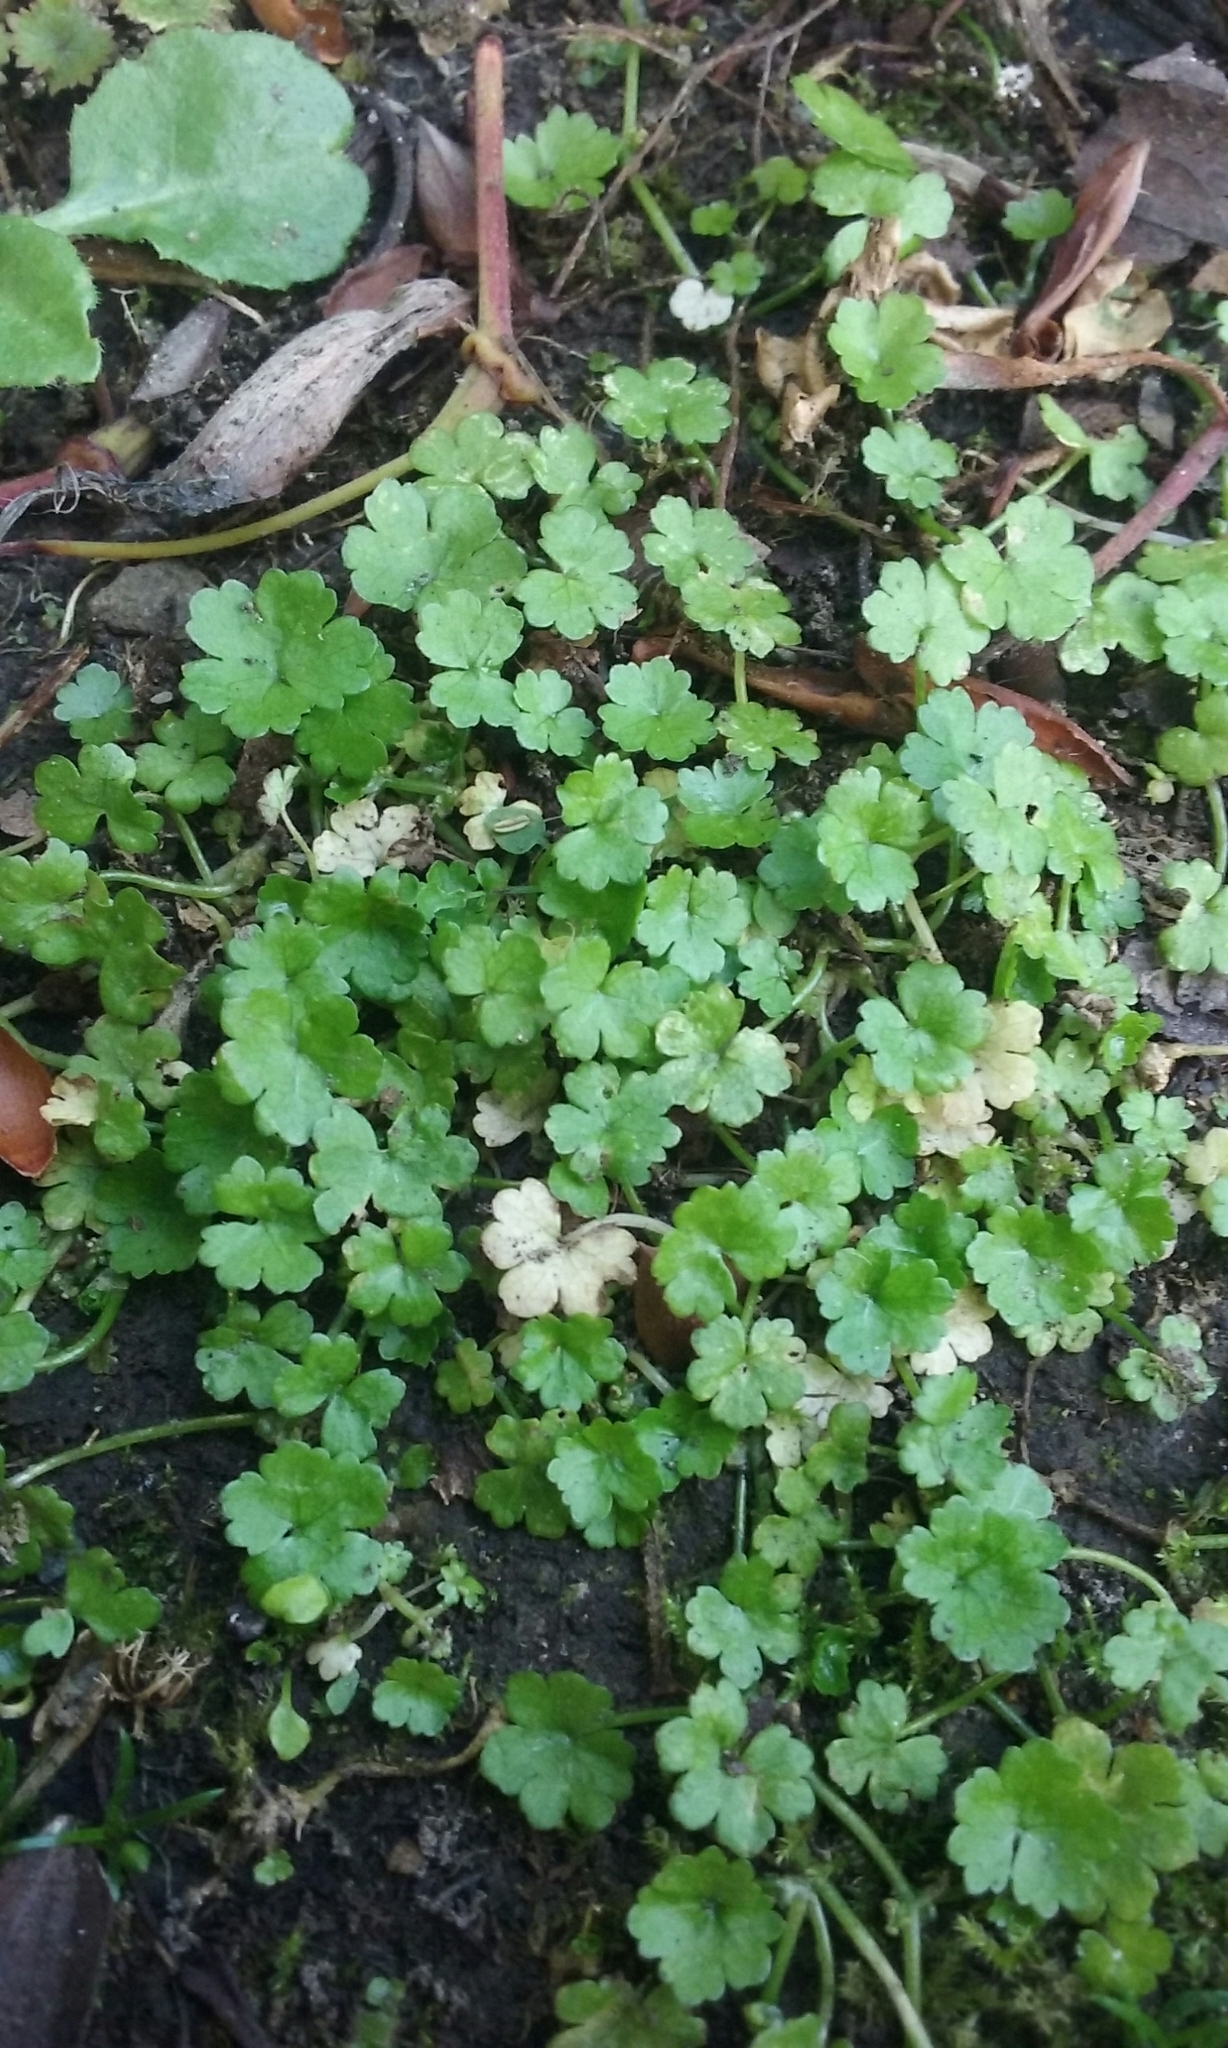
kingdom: Plantae
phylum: Tracheophyta
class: Magnoliopsida
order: Apiales
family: Araliaceae
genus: Hydrocotyle
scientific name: Hydrocotyle heteromeria
